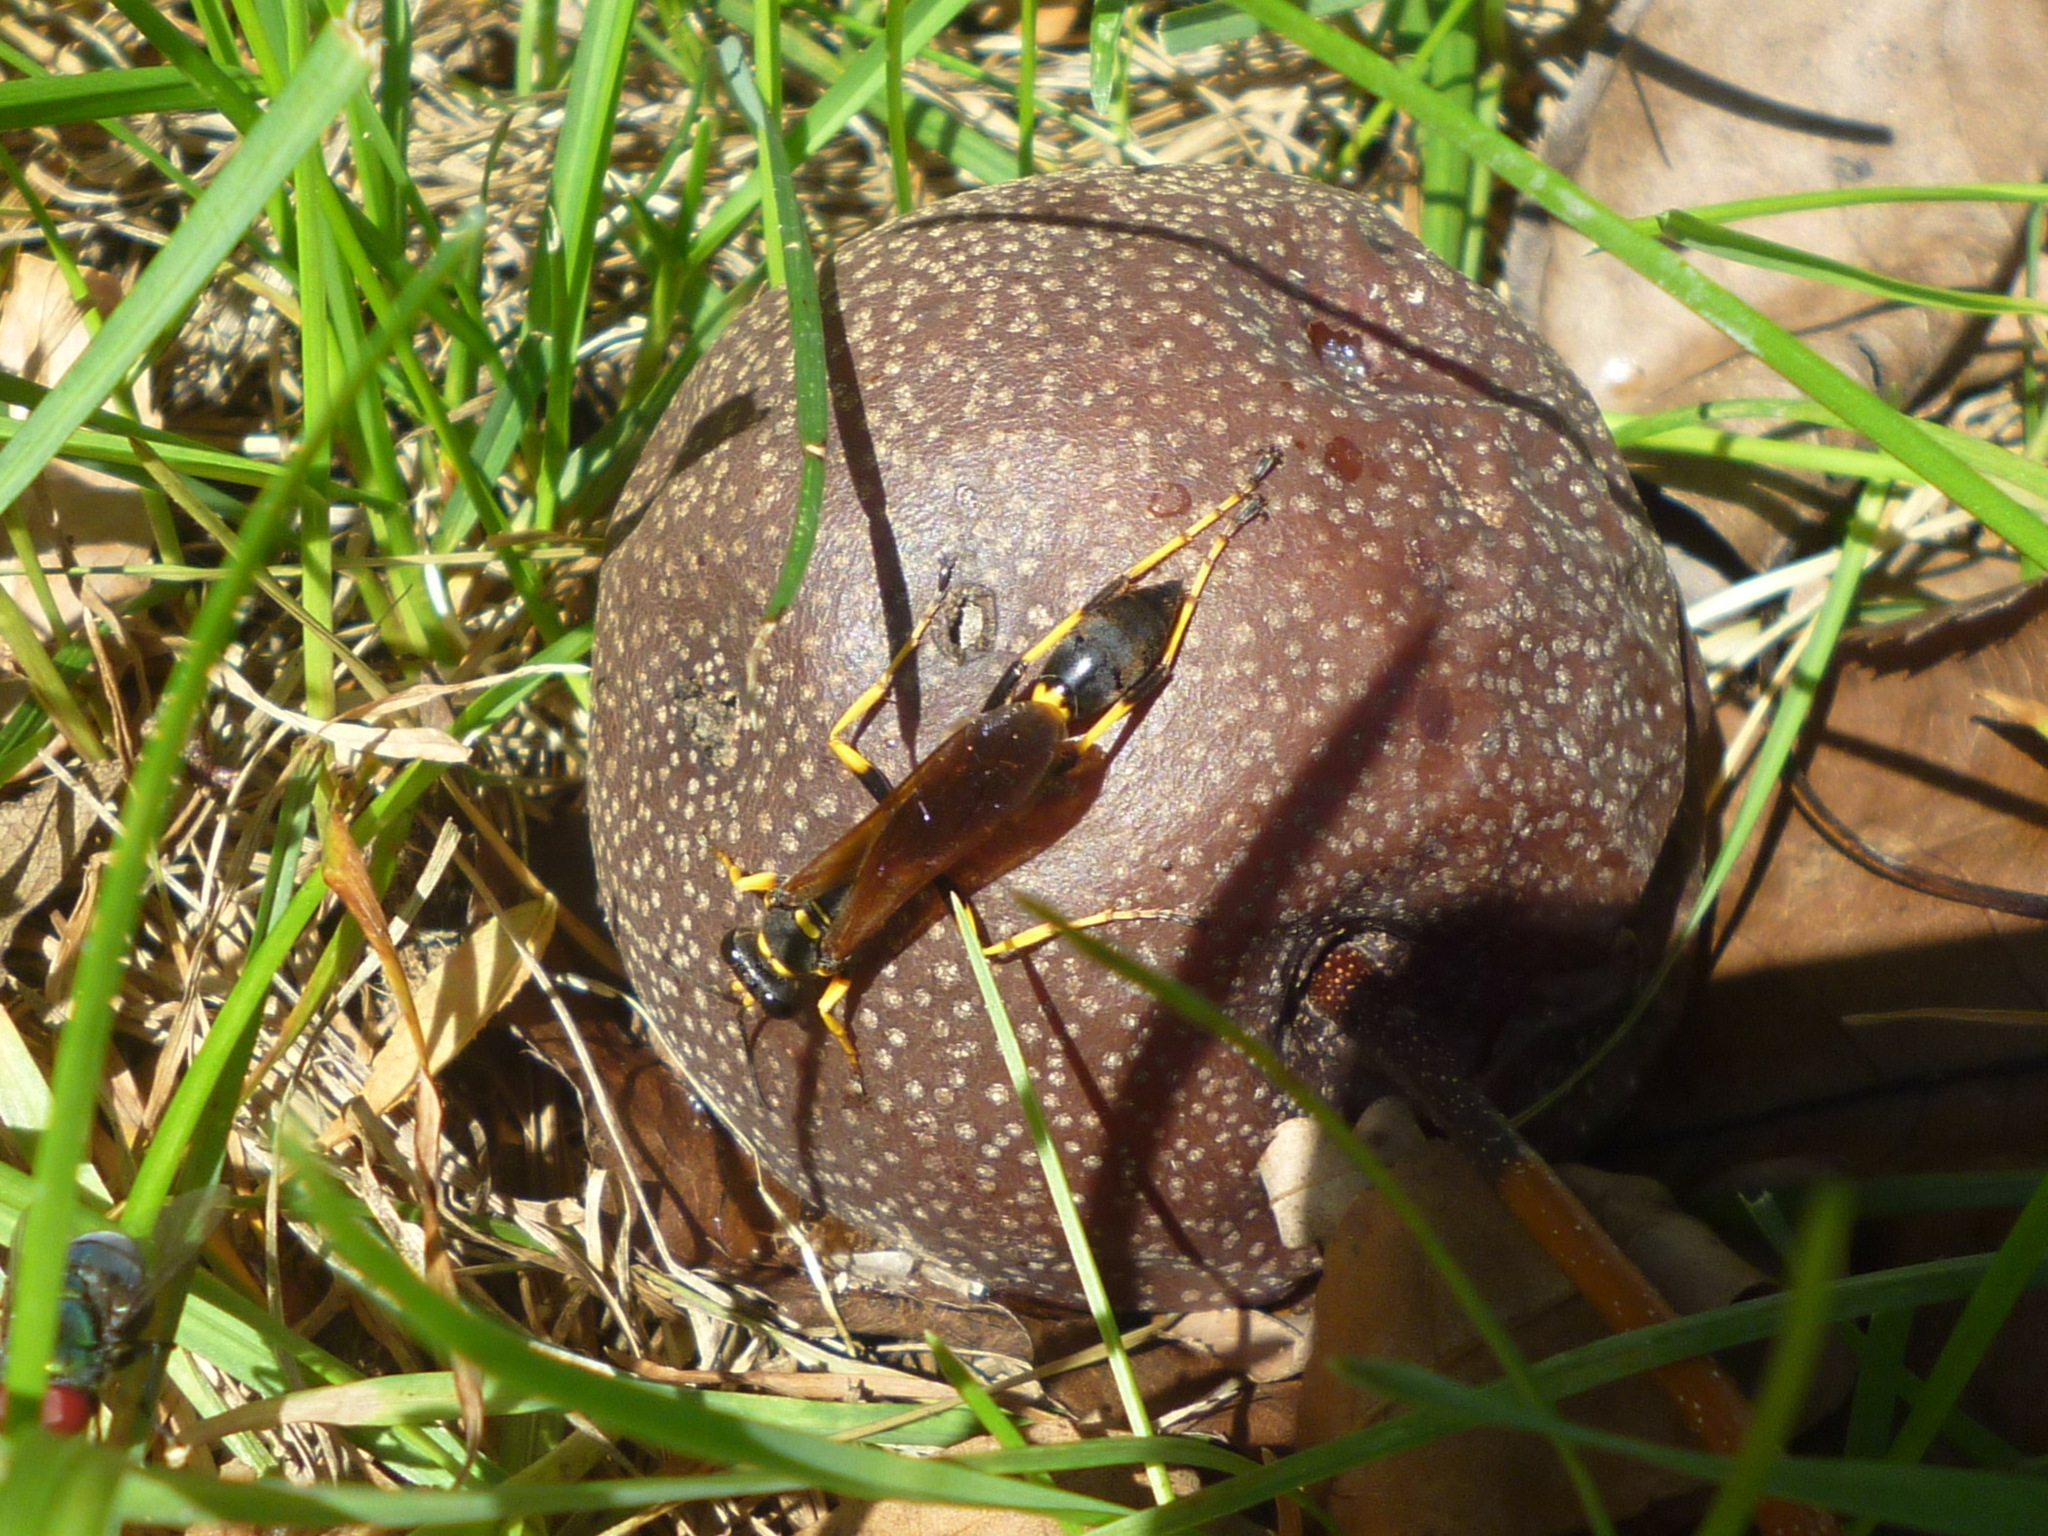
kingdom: Animalia
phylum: Arthropoda
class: Insecta
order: Hymenoptera
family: Sphecidae
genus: Sceliphron
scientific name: Sceliphron caementarium
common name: Mud dauber
